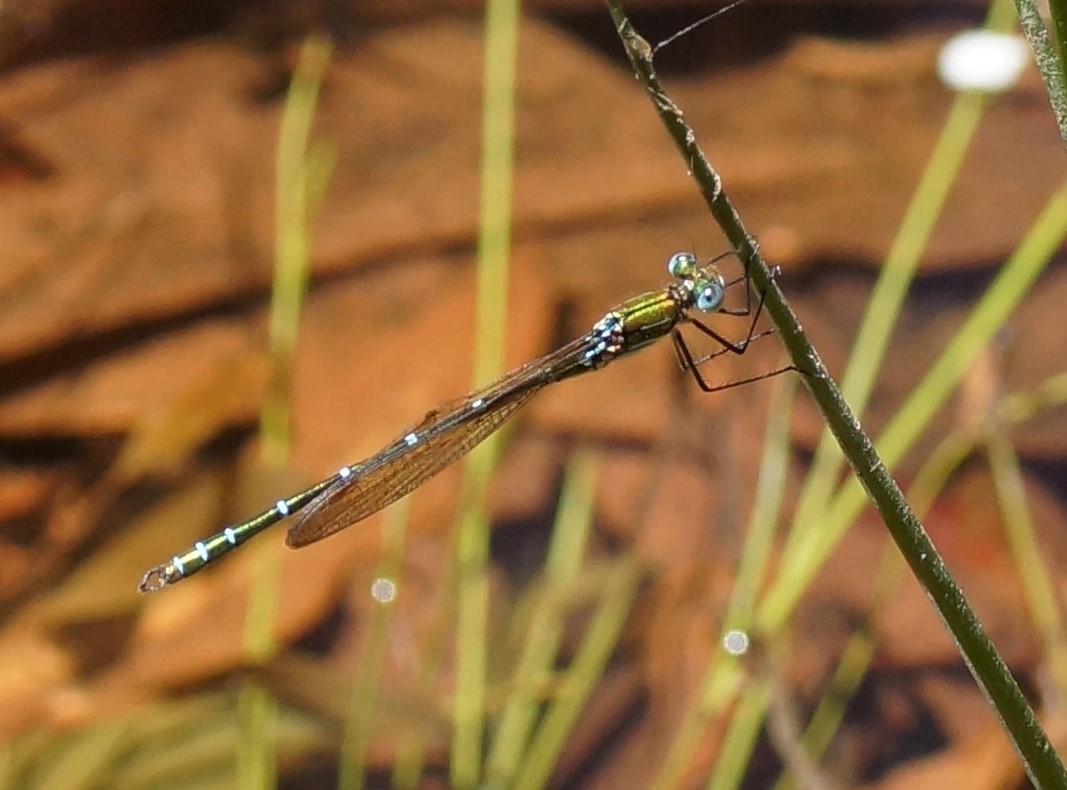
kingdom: Animalia
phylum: Arthropoda
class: Insecta
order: Odonata
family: Lestidae
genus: Austrolestes
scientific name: Austrolestes cingulatus
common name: Metallic ringtail
